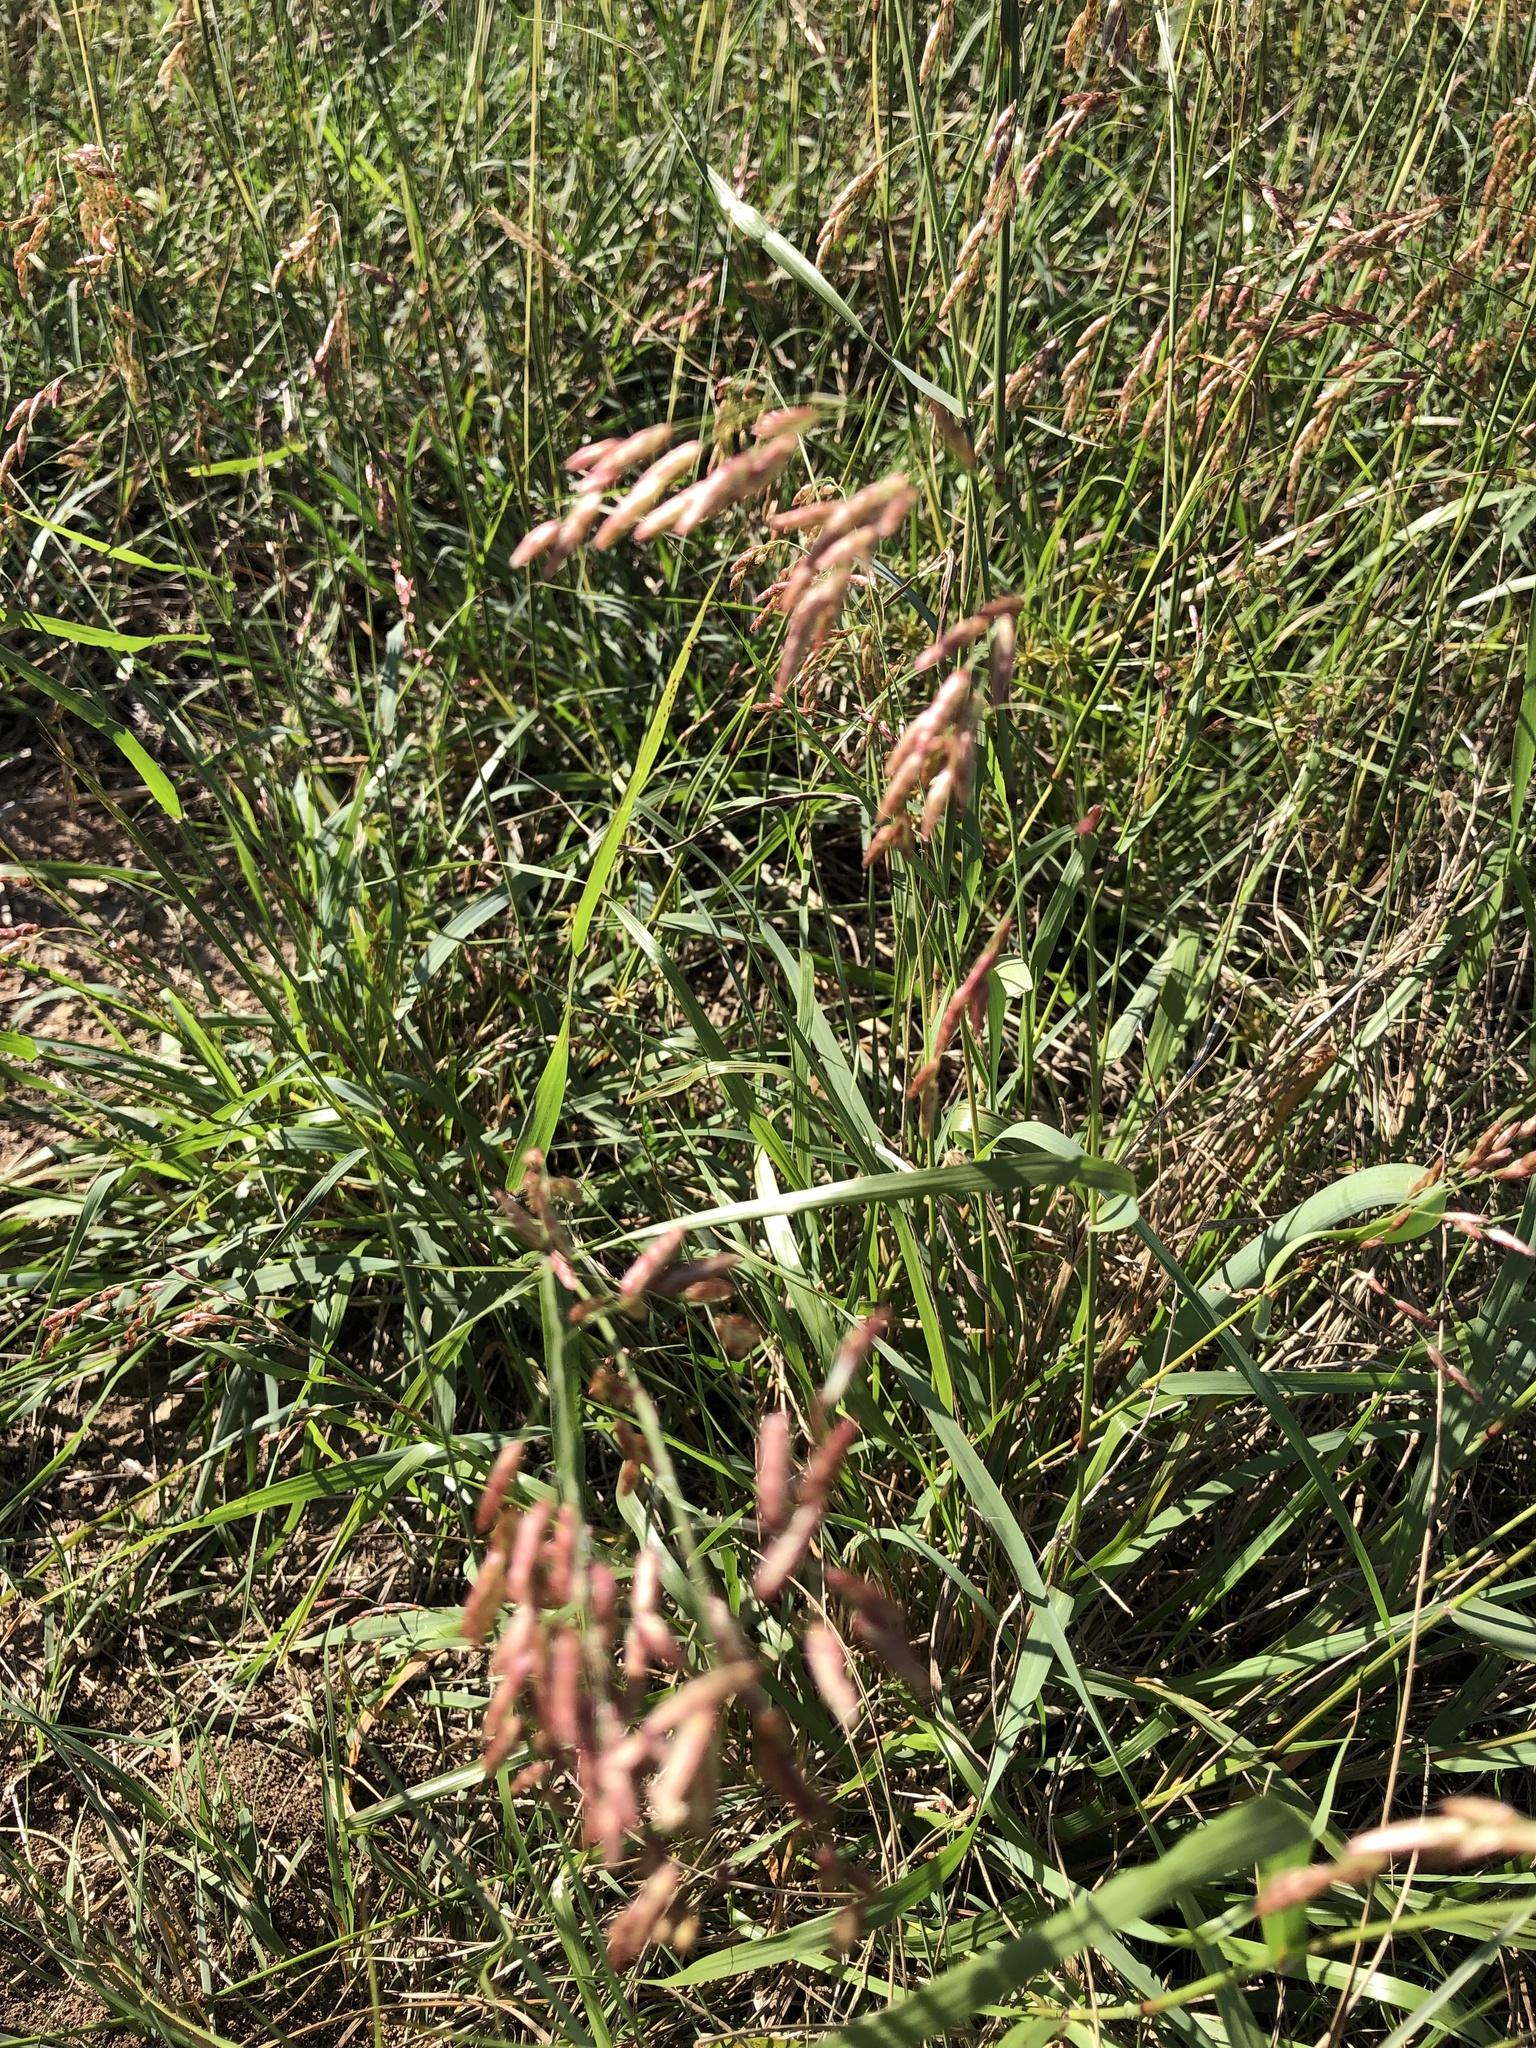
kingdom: Plantae
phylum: Tracheophyta
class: Liliopsida
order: Poales
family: Poaceae
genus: Tridens
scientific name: Tridens texanus
